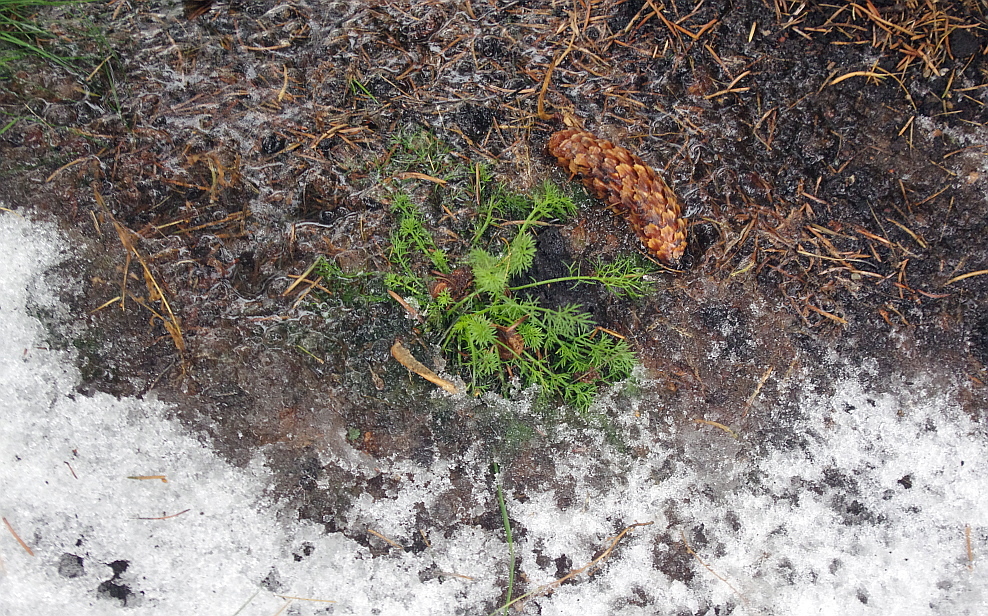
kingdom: Plantae
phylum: Tracheophyta
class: Magnoliopsida
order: Asterales
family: Asteraceae
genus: Tripleurospermum
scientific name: Tripleurospermum inodorum
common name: Scentless mayweed
